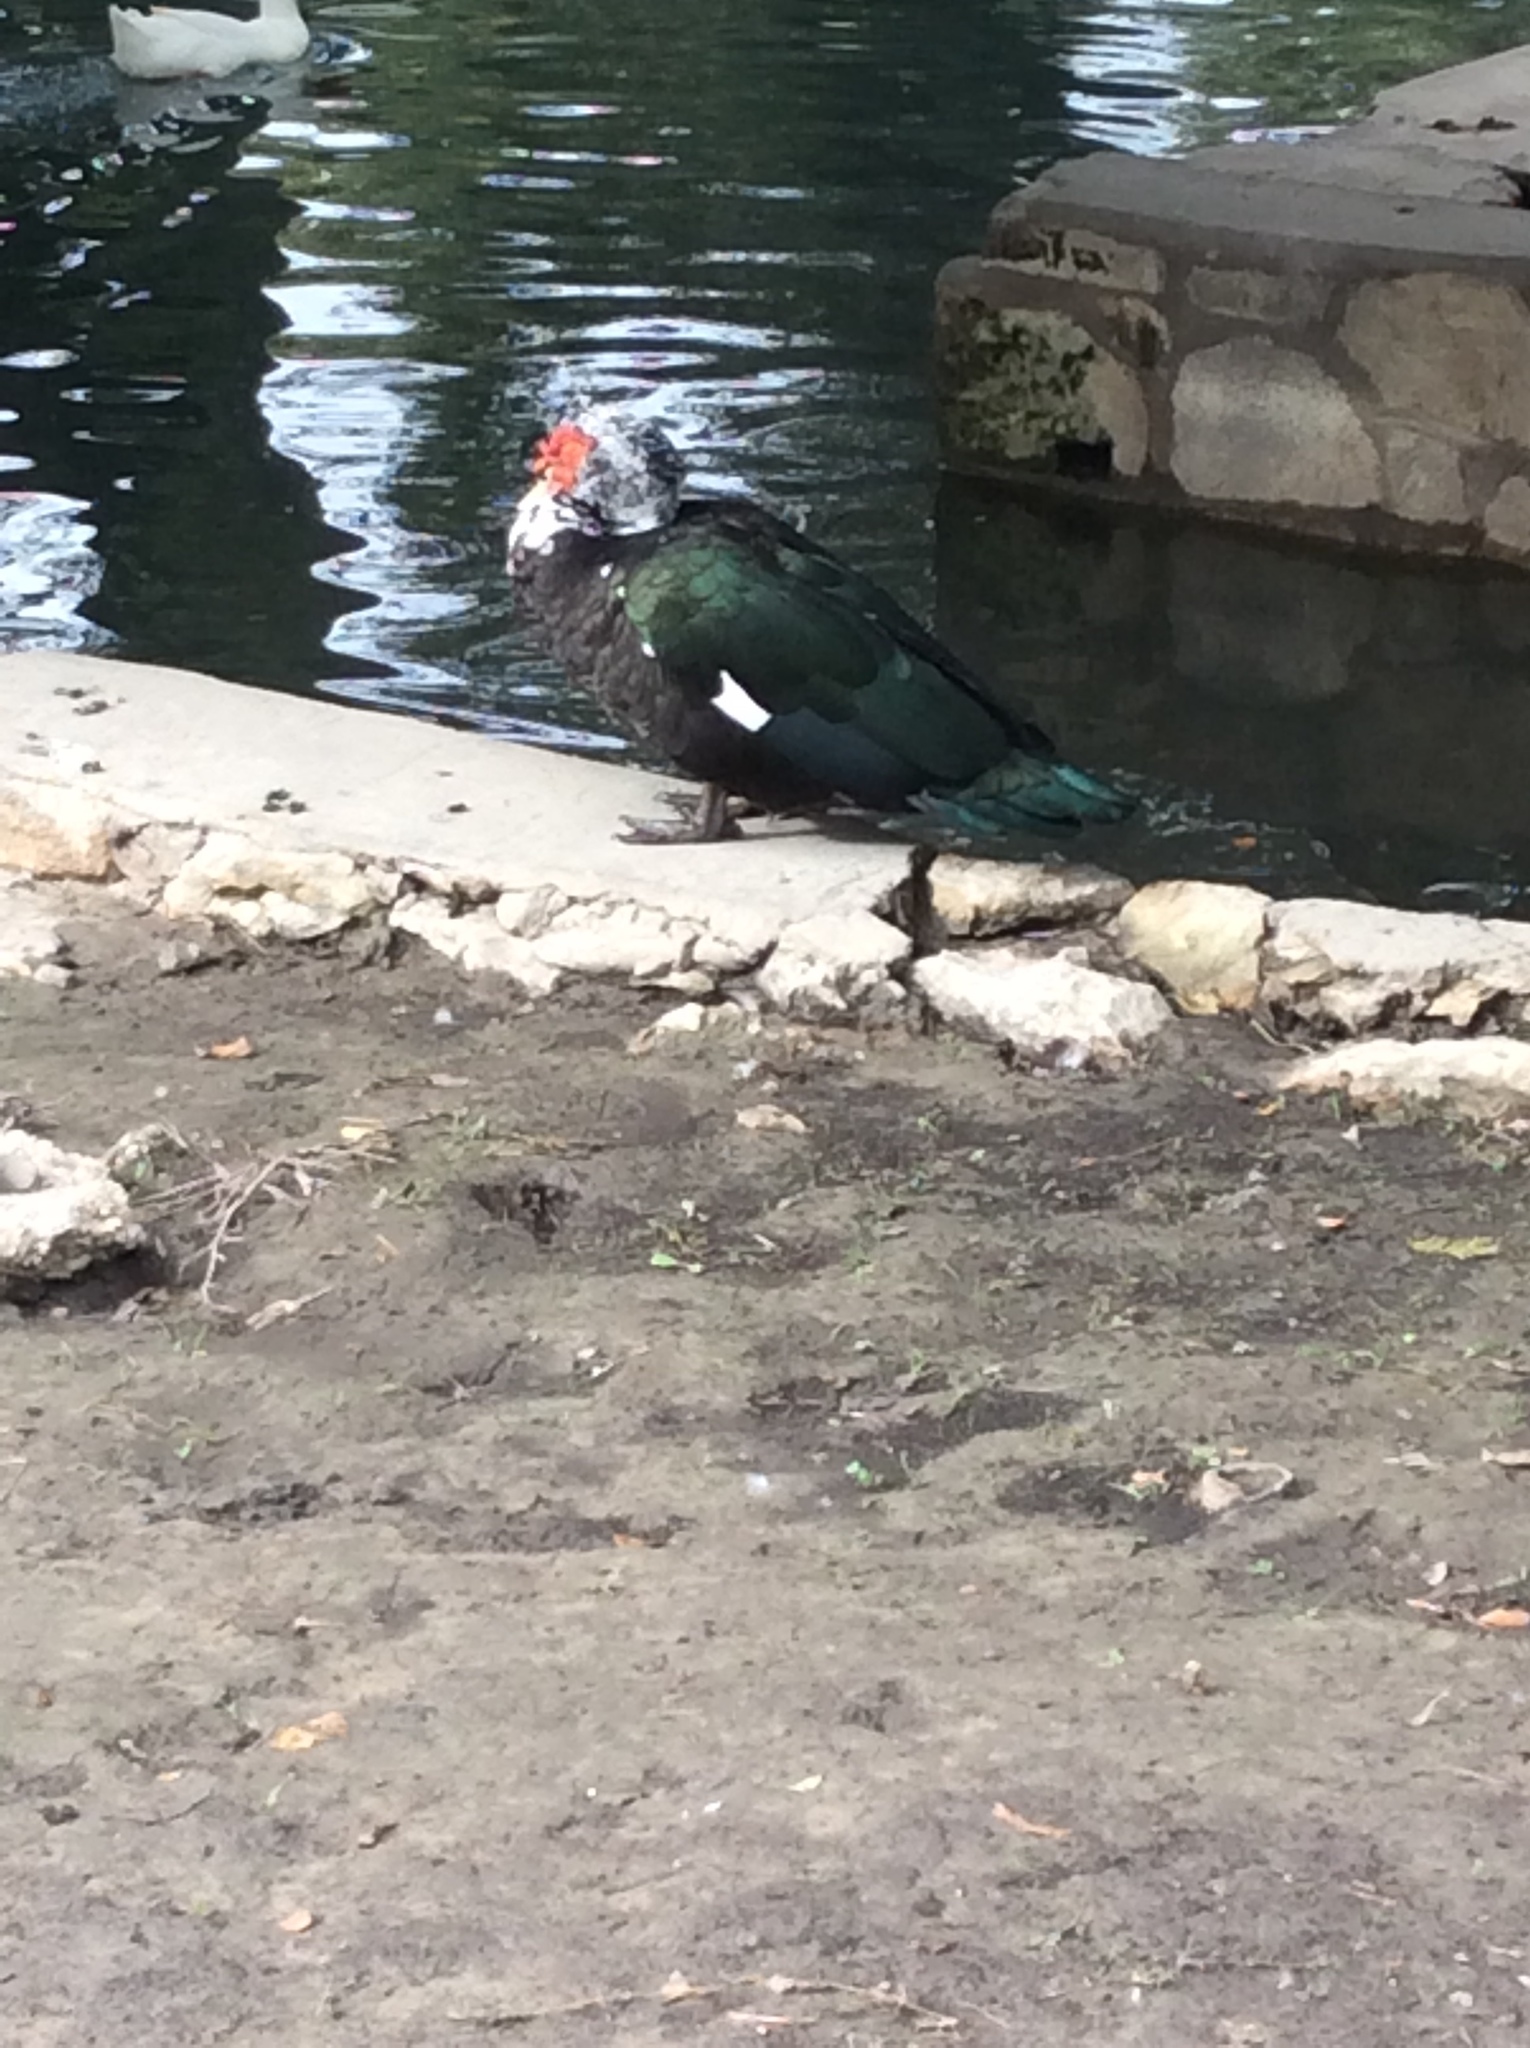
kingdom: Animalia
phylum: Chordata
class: Aves
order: Anseriformes
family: Anatidae
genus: Cairina
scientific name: Cairina moschata
